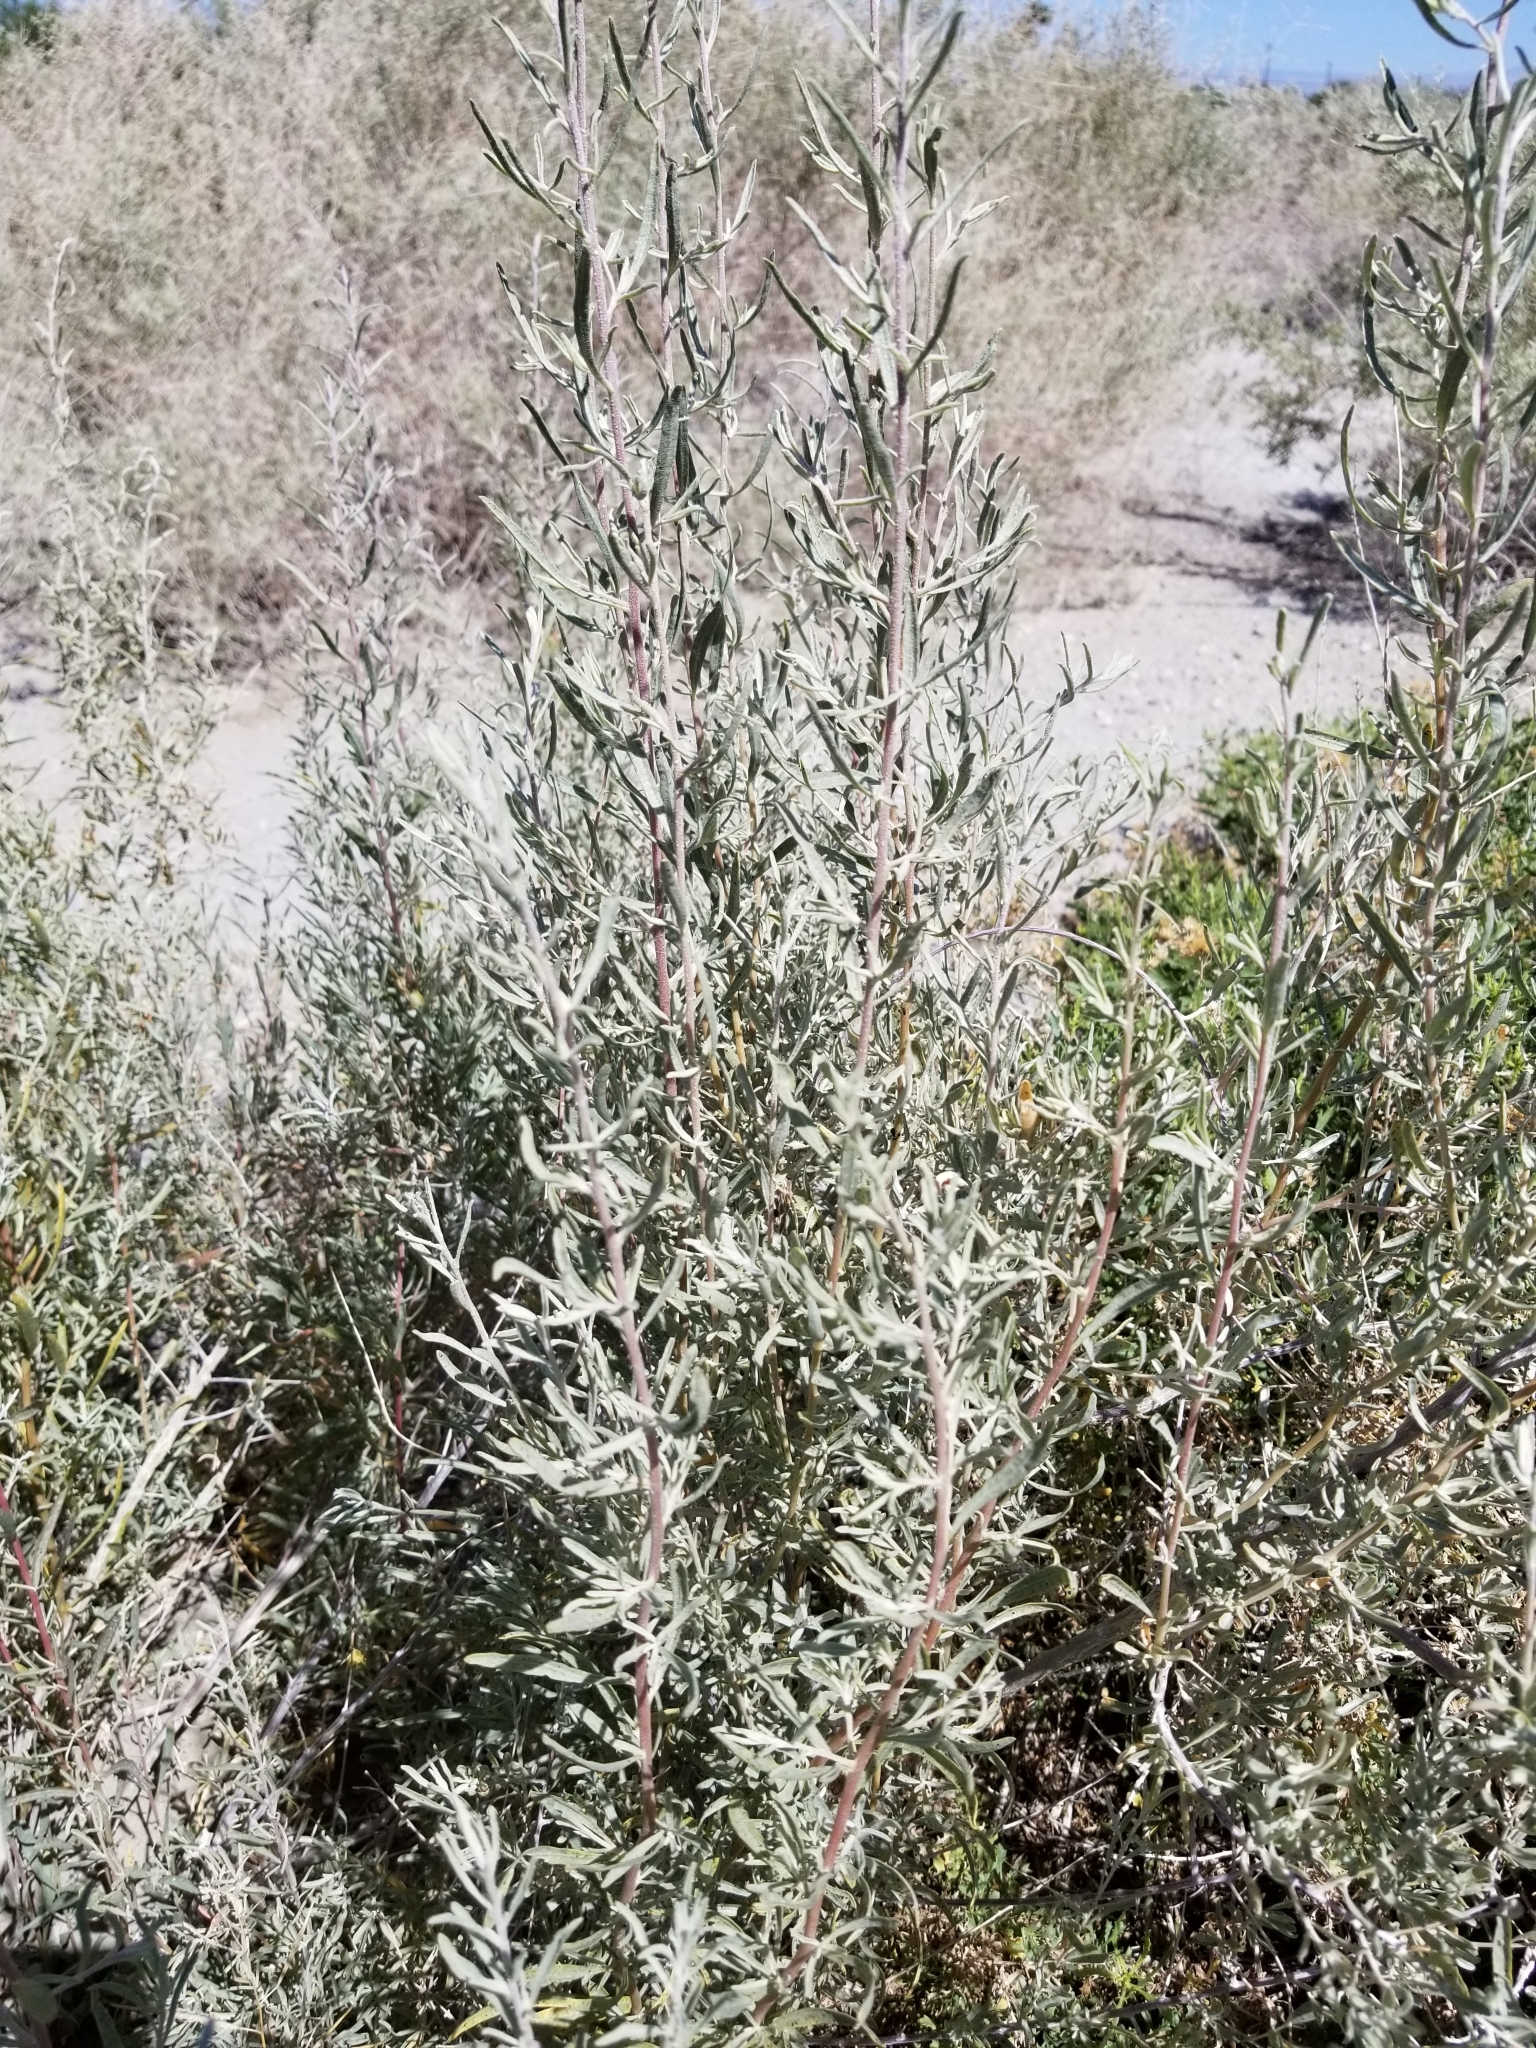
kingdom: Plantae
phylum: Tracheophyta
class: Magnoliopsida
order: Caryophyllales
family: Amaranthaceae
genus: Atriplex
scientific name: Atriplex canescens
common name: Four-wing saltbush
